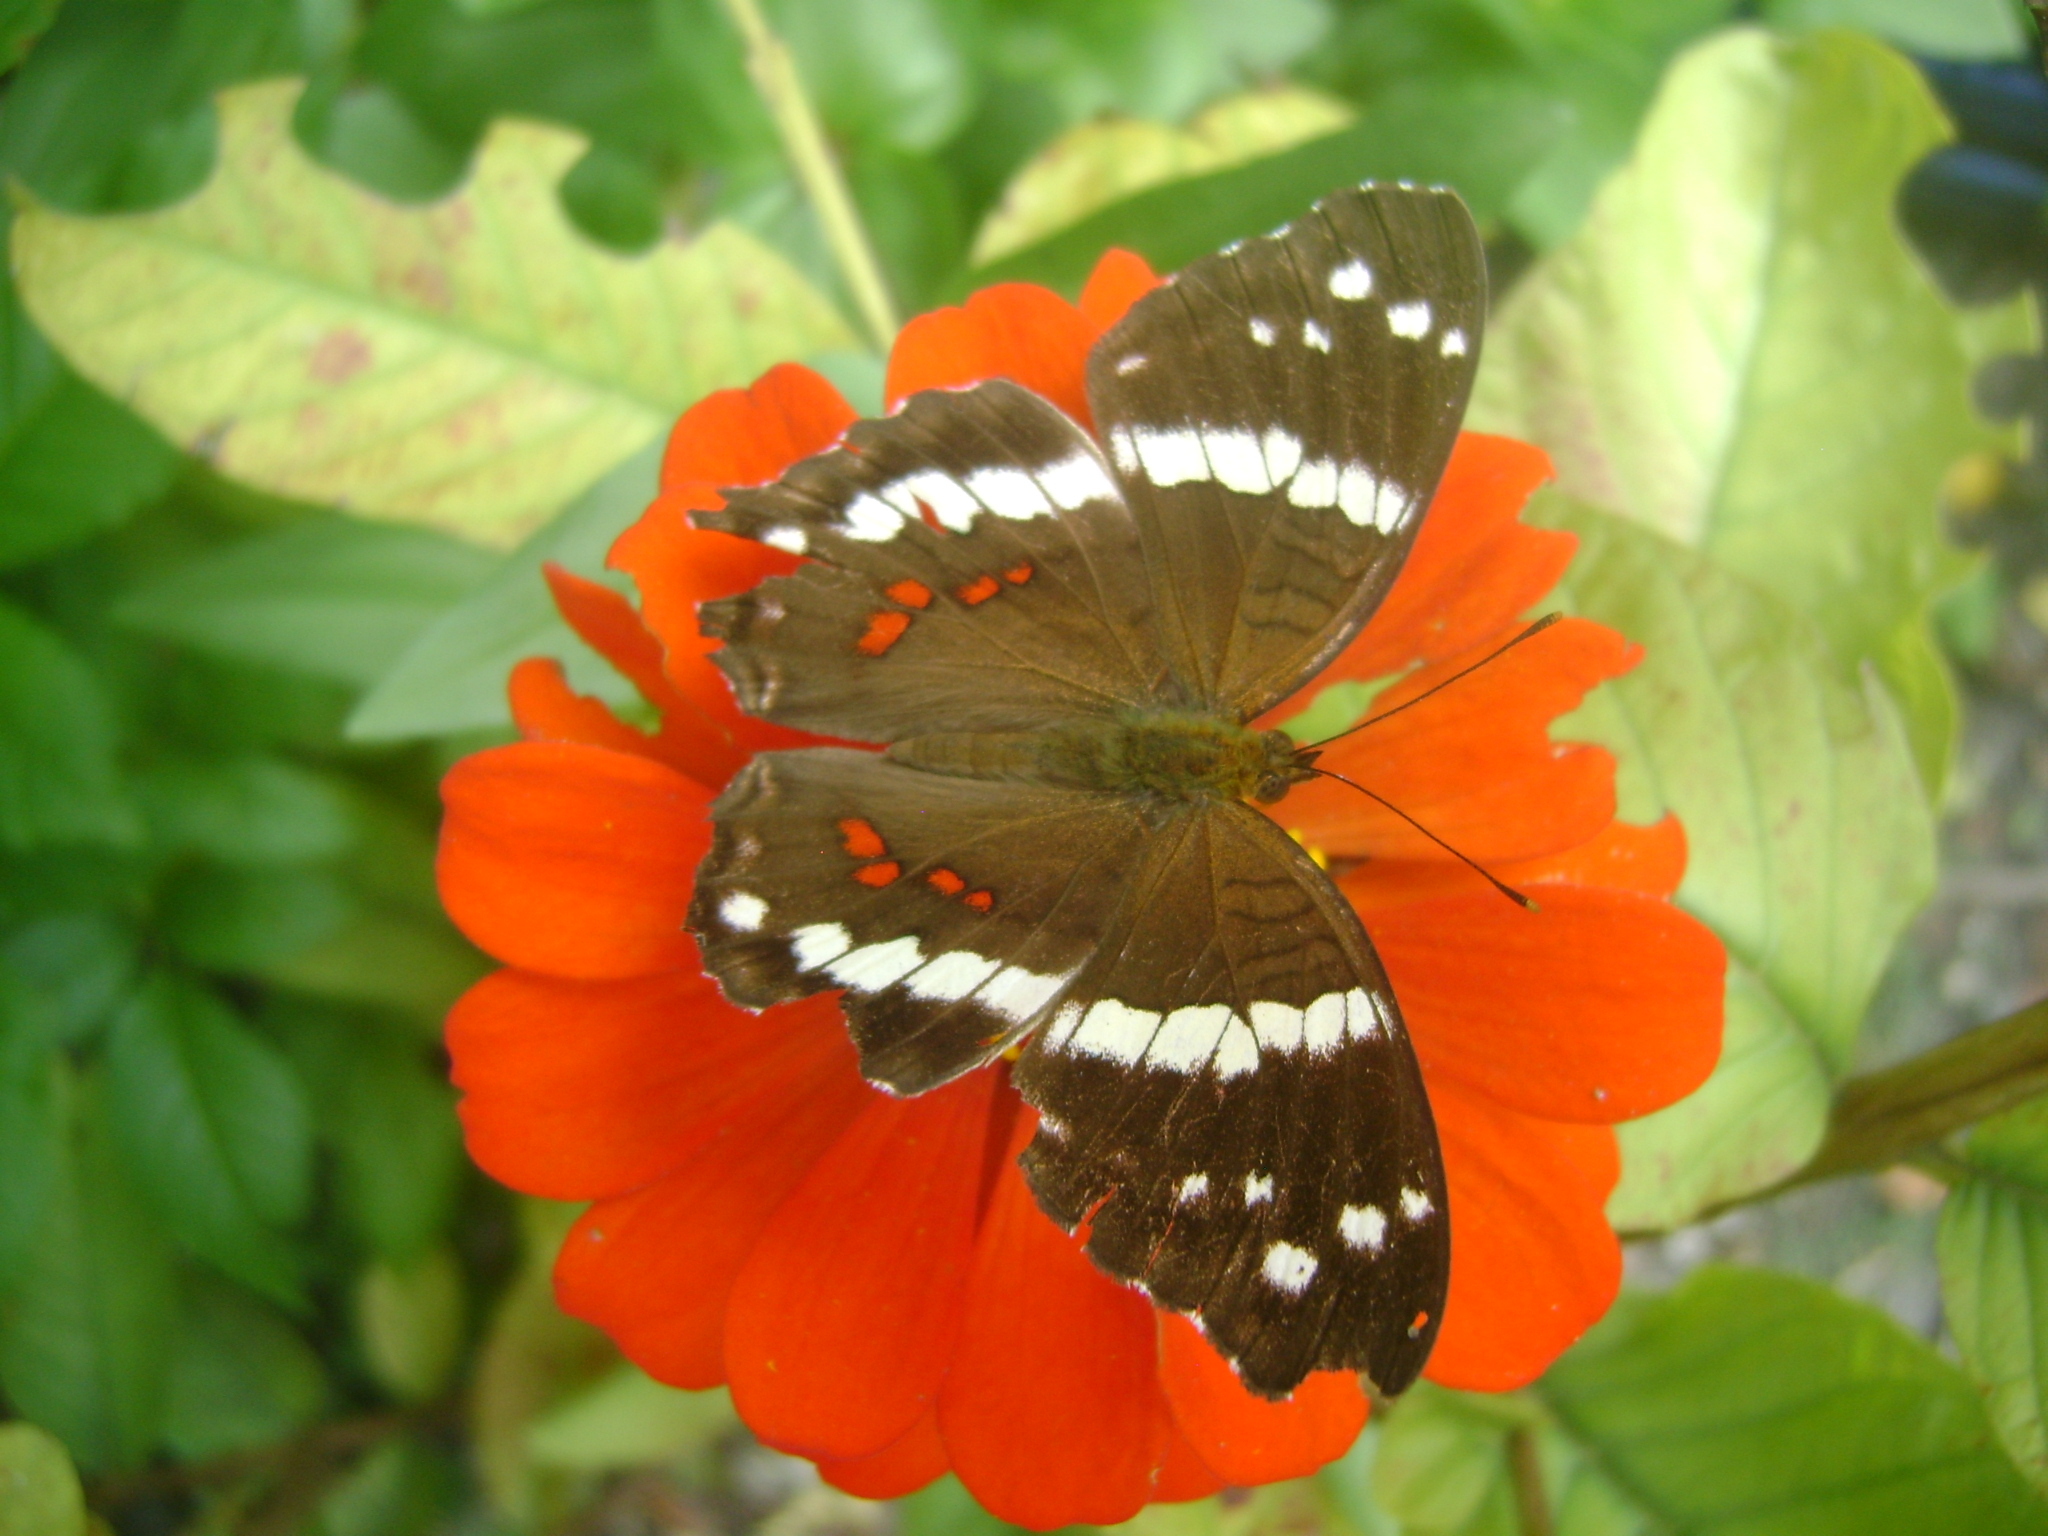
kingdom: Animalia
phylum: Arthropoda
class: Insecta
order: Lepidoptera
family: Nymphalidae
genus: Anartia
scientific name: Anartia fatima
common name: Banded peacock
